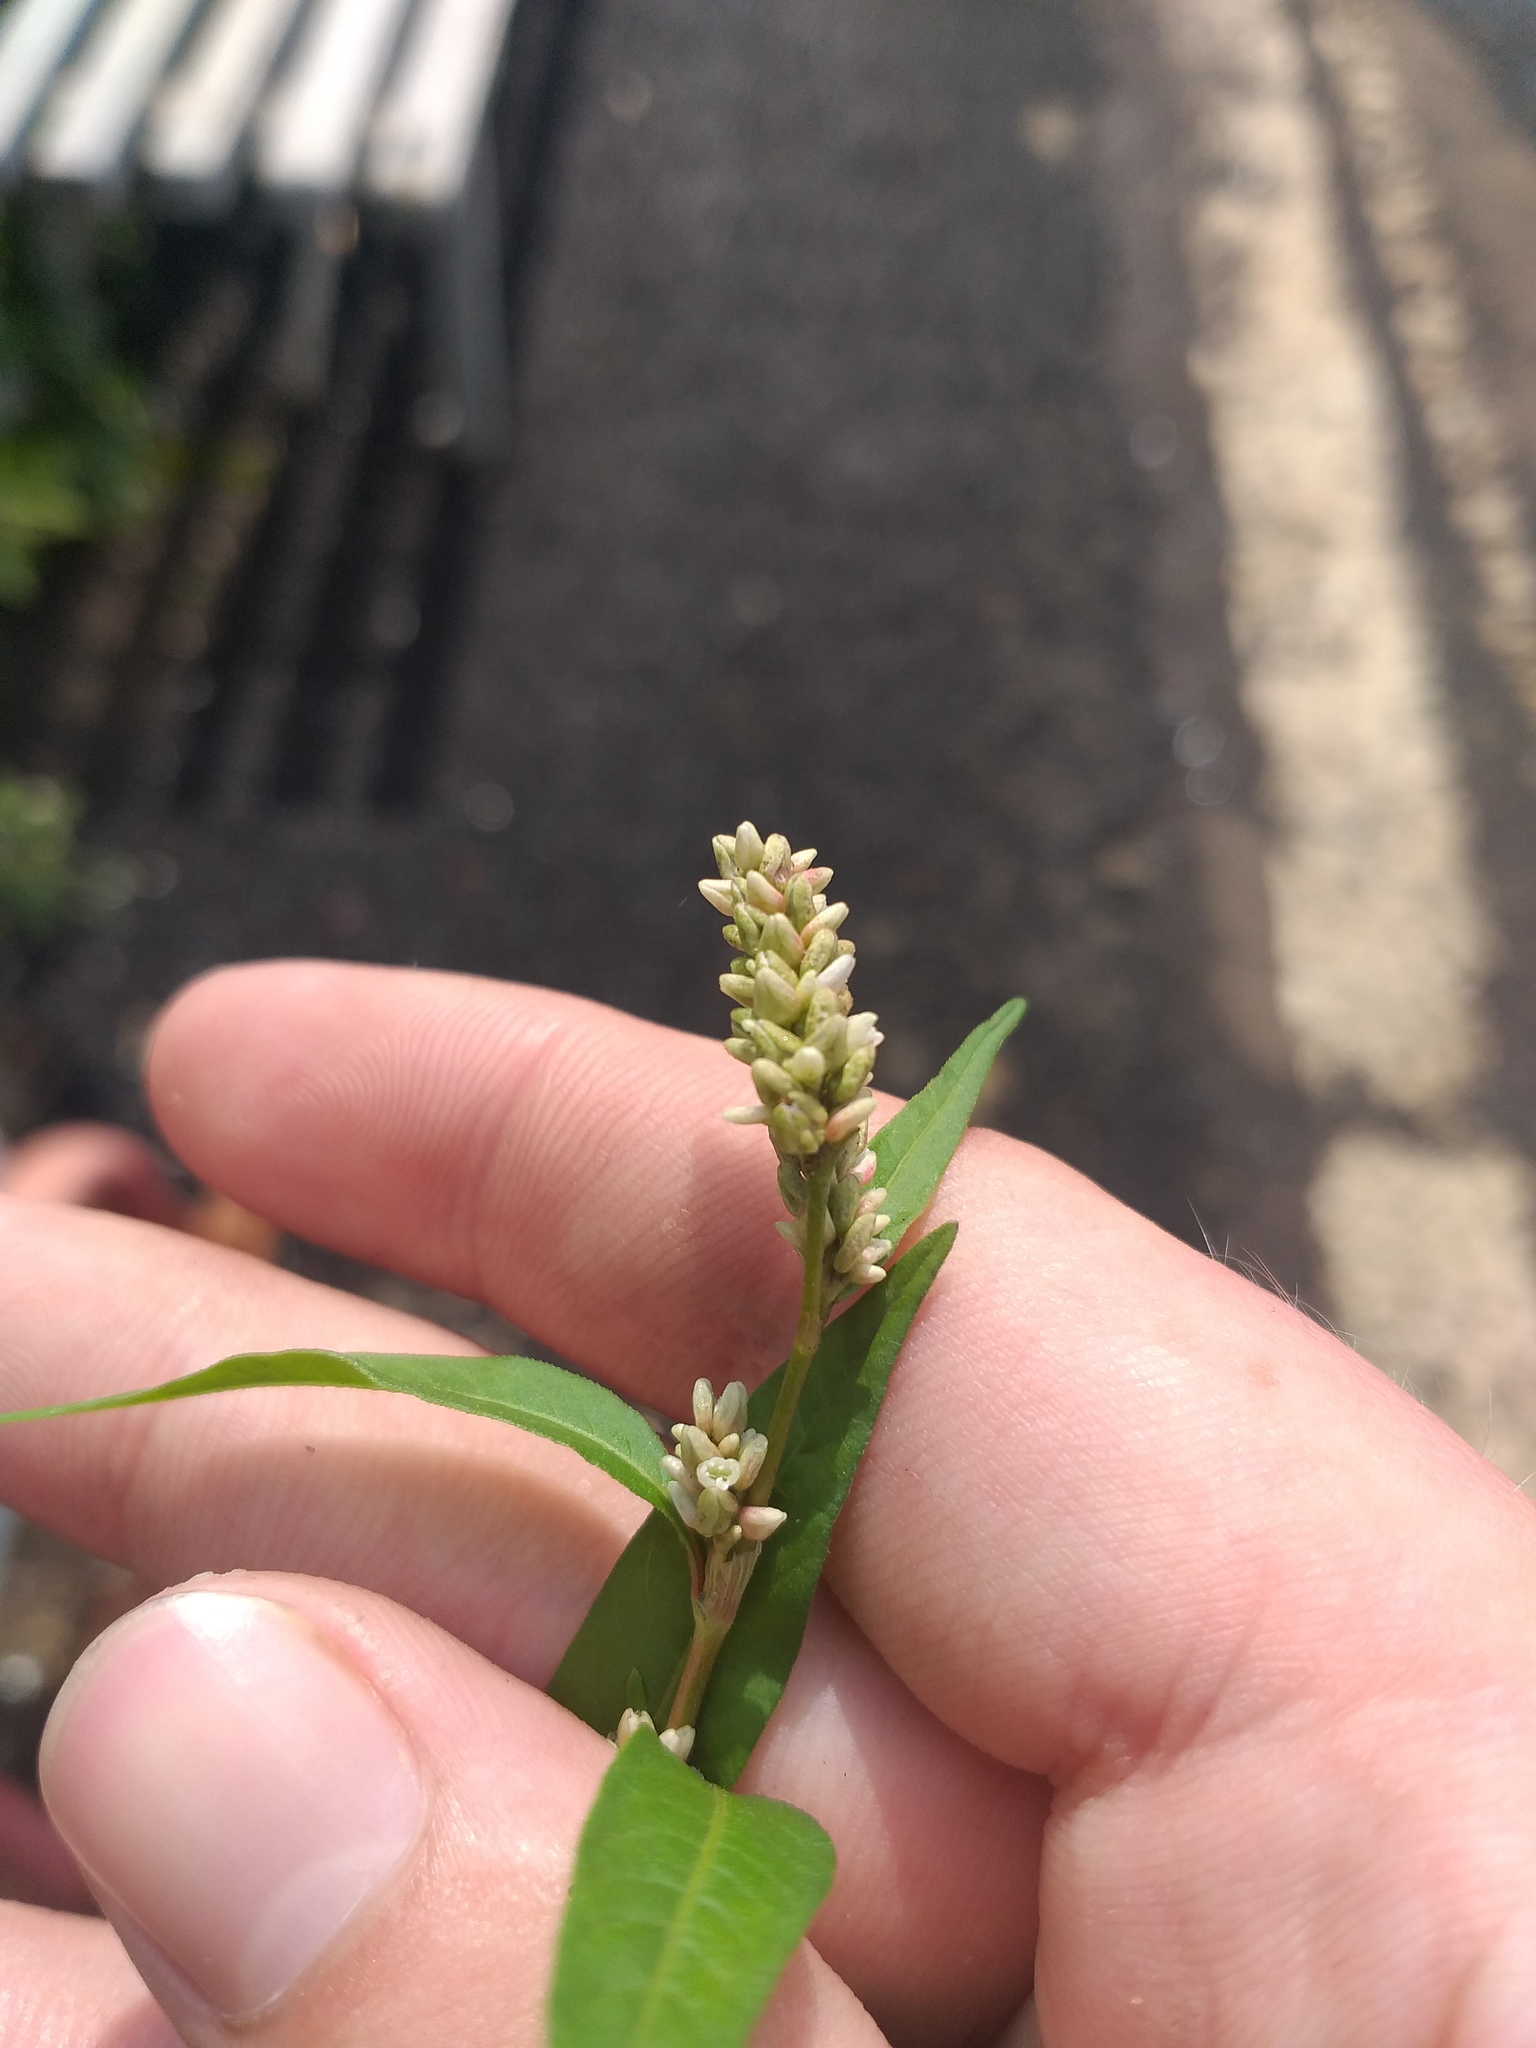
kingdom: Plantae
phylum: Tracheophyta
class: Magnoliopsida
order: Caryophyllales
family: Polygonaceae
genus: Persicaria
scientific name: Persicaria lapathifolia
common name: Curlytop knotweed
